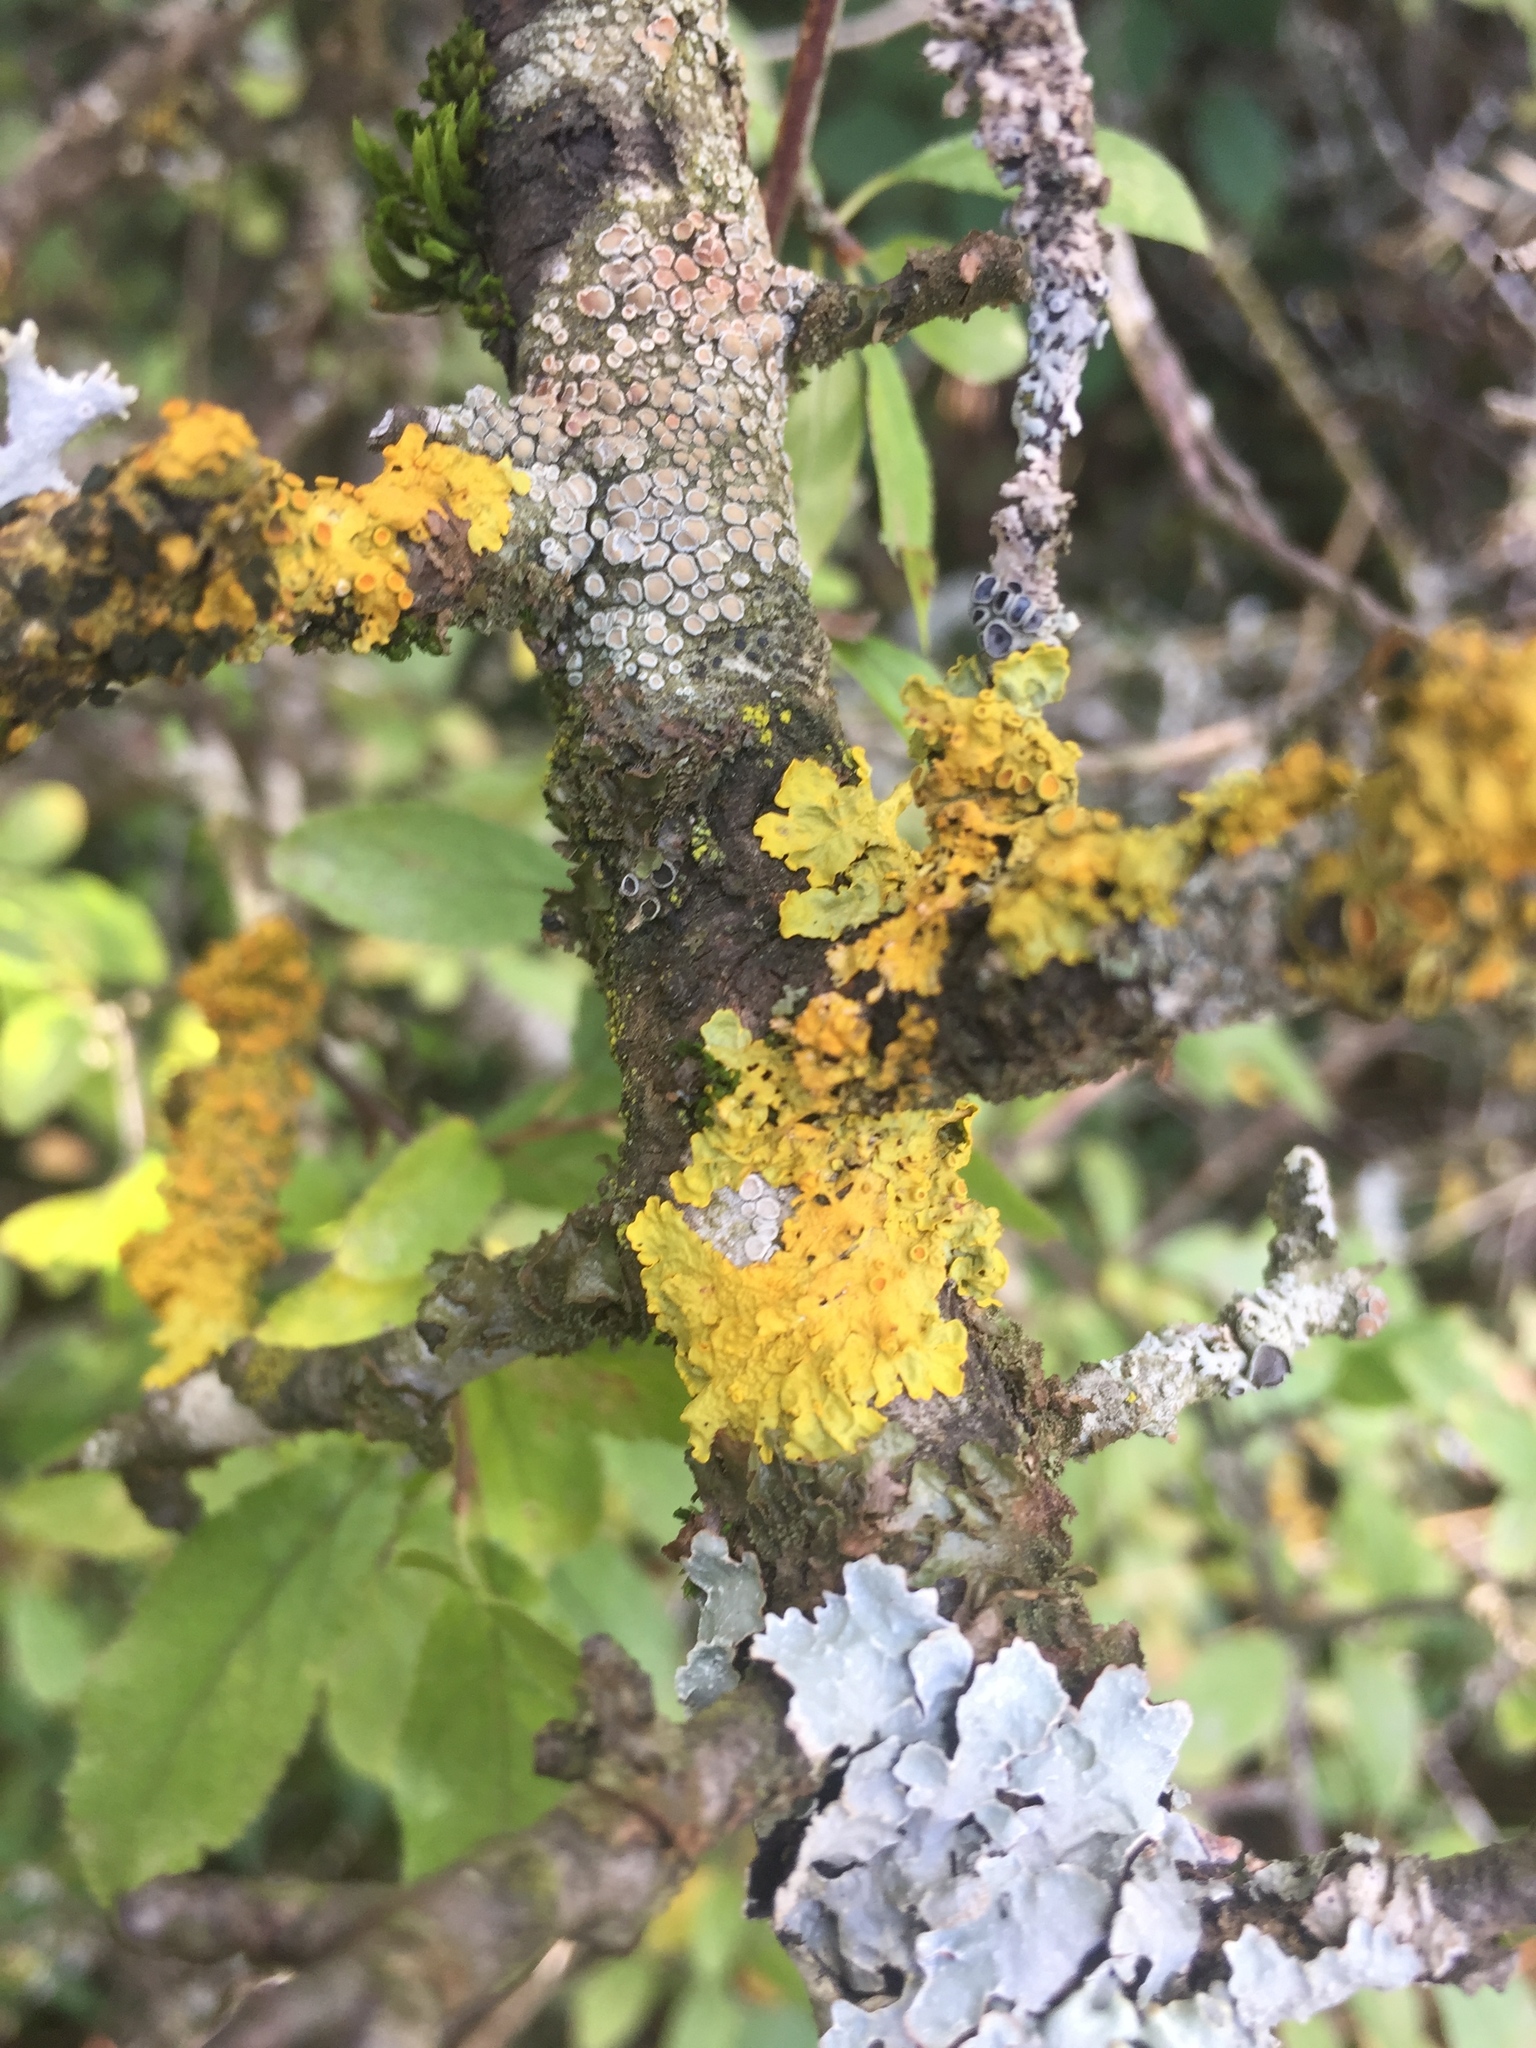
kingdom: Fungi
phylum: Ascomycota
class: Lecanoromycetes
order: Teloschistales
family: Teloschistaceae
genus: Xanthoria
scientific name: Xanthoria parietina
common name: Common orange lichen
